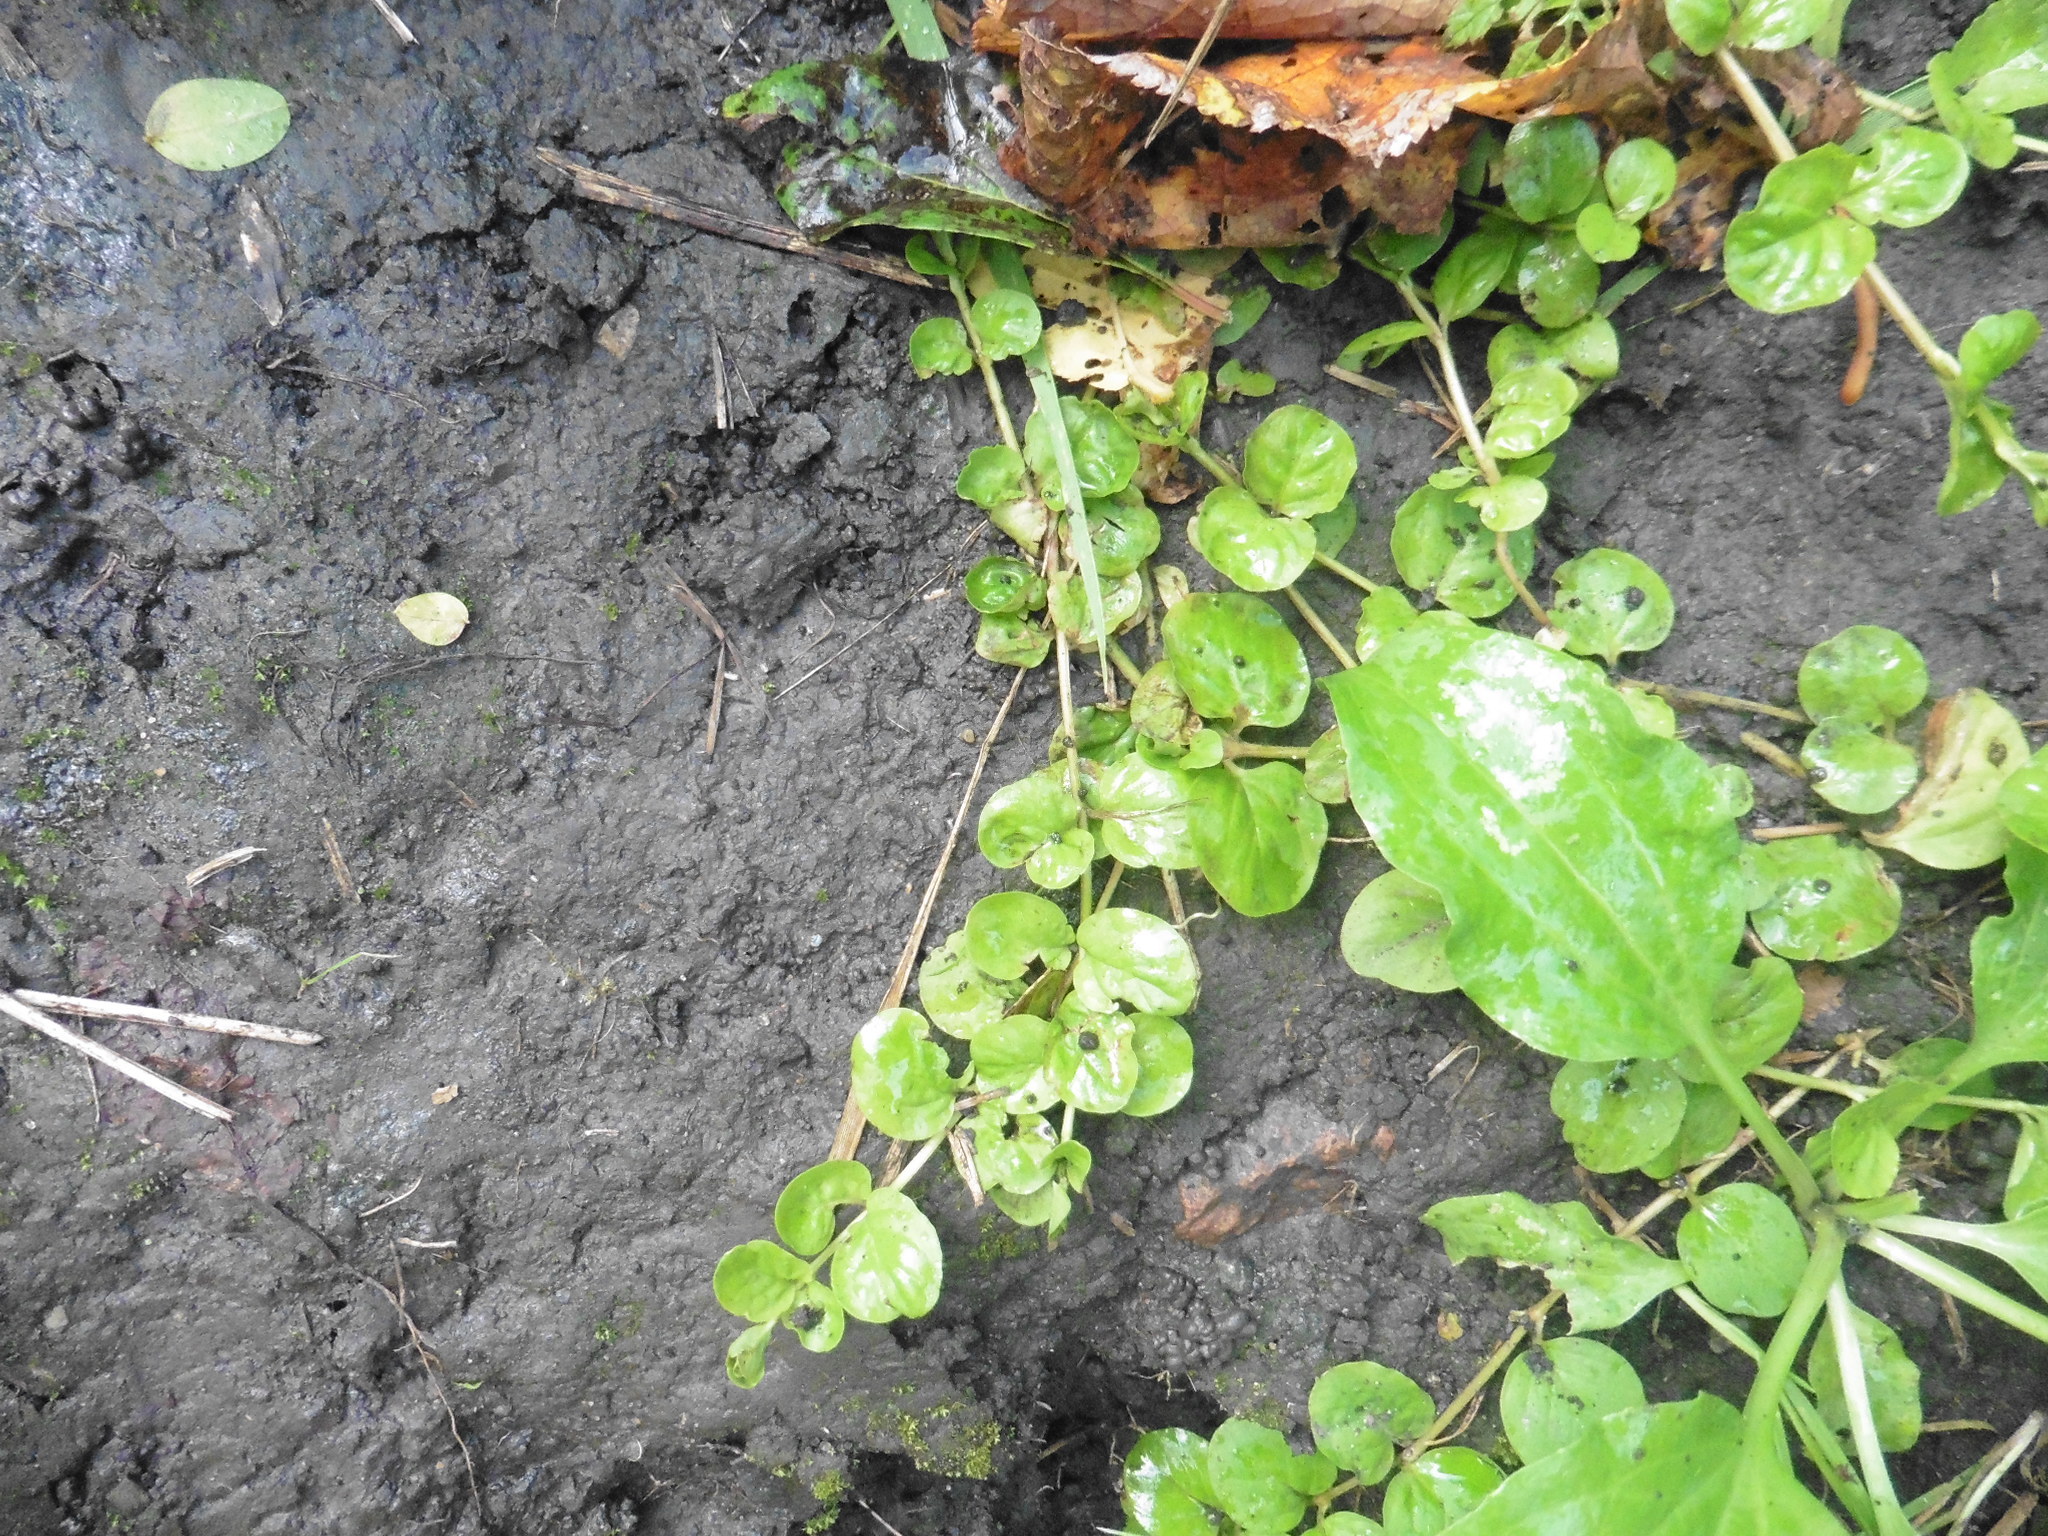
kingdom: Plantae
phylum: Tracheophyta
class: Magnoliopsida
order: Ericales
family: Primulaceae
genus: Lysimachia
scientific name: Lysimachia nummularia
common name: Moneywort
